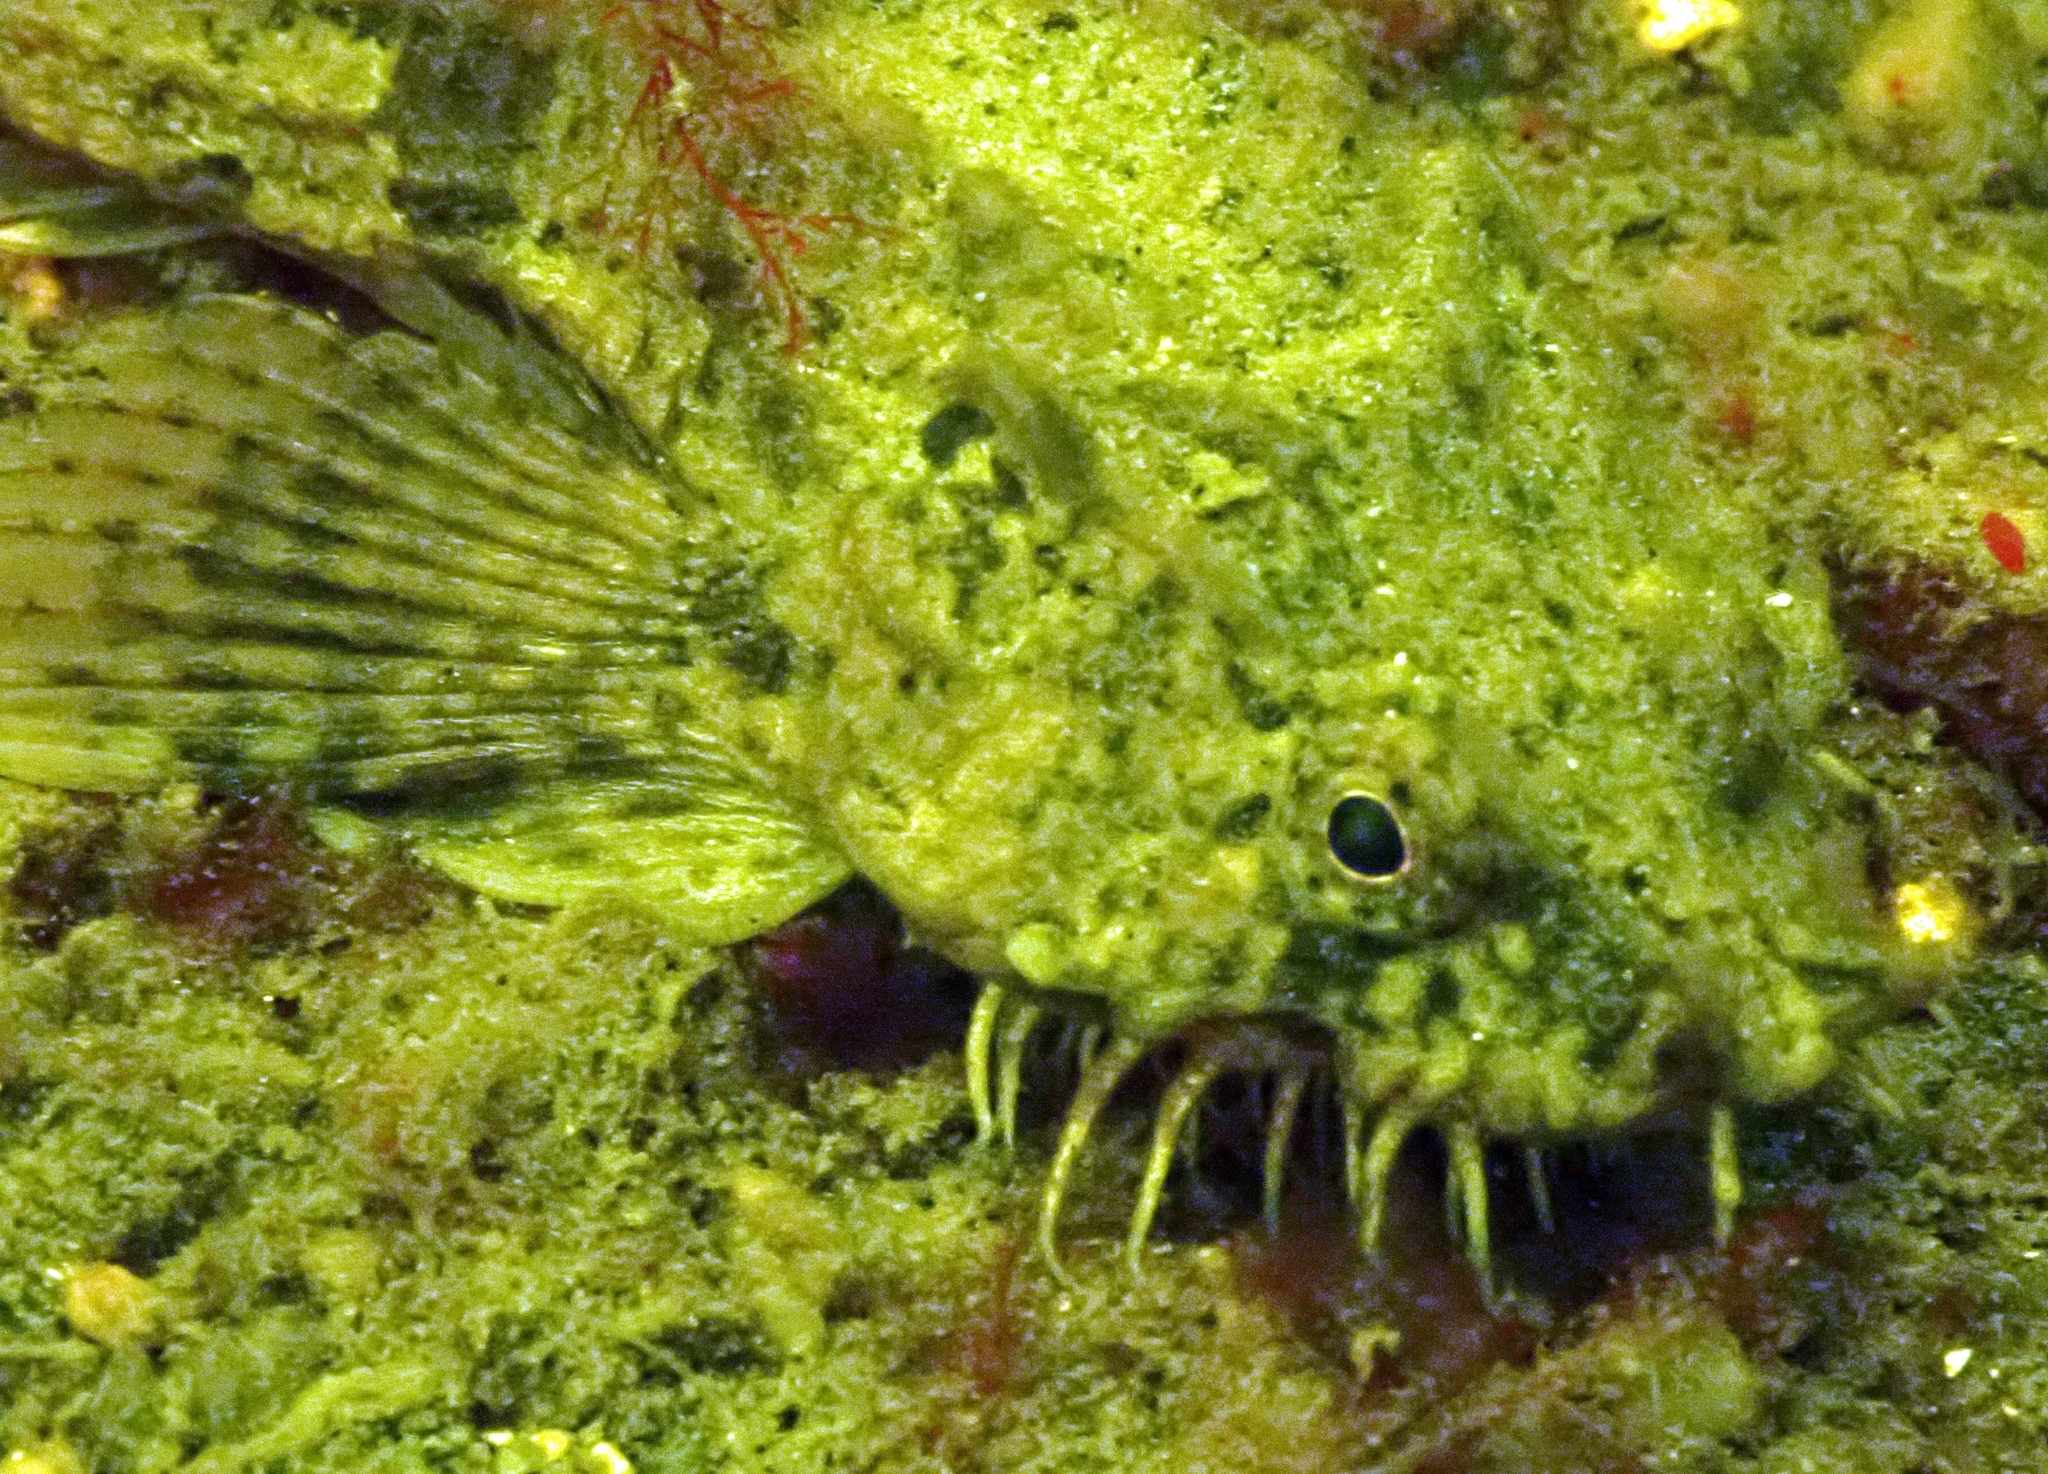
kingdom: Animalia
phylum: Chordata
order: Scorpaeniformes
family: Agonidae
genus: Agonus
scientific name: Agonus cataphractus
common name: Pogge
